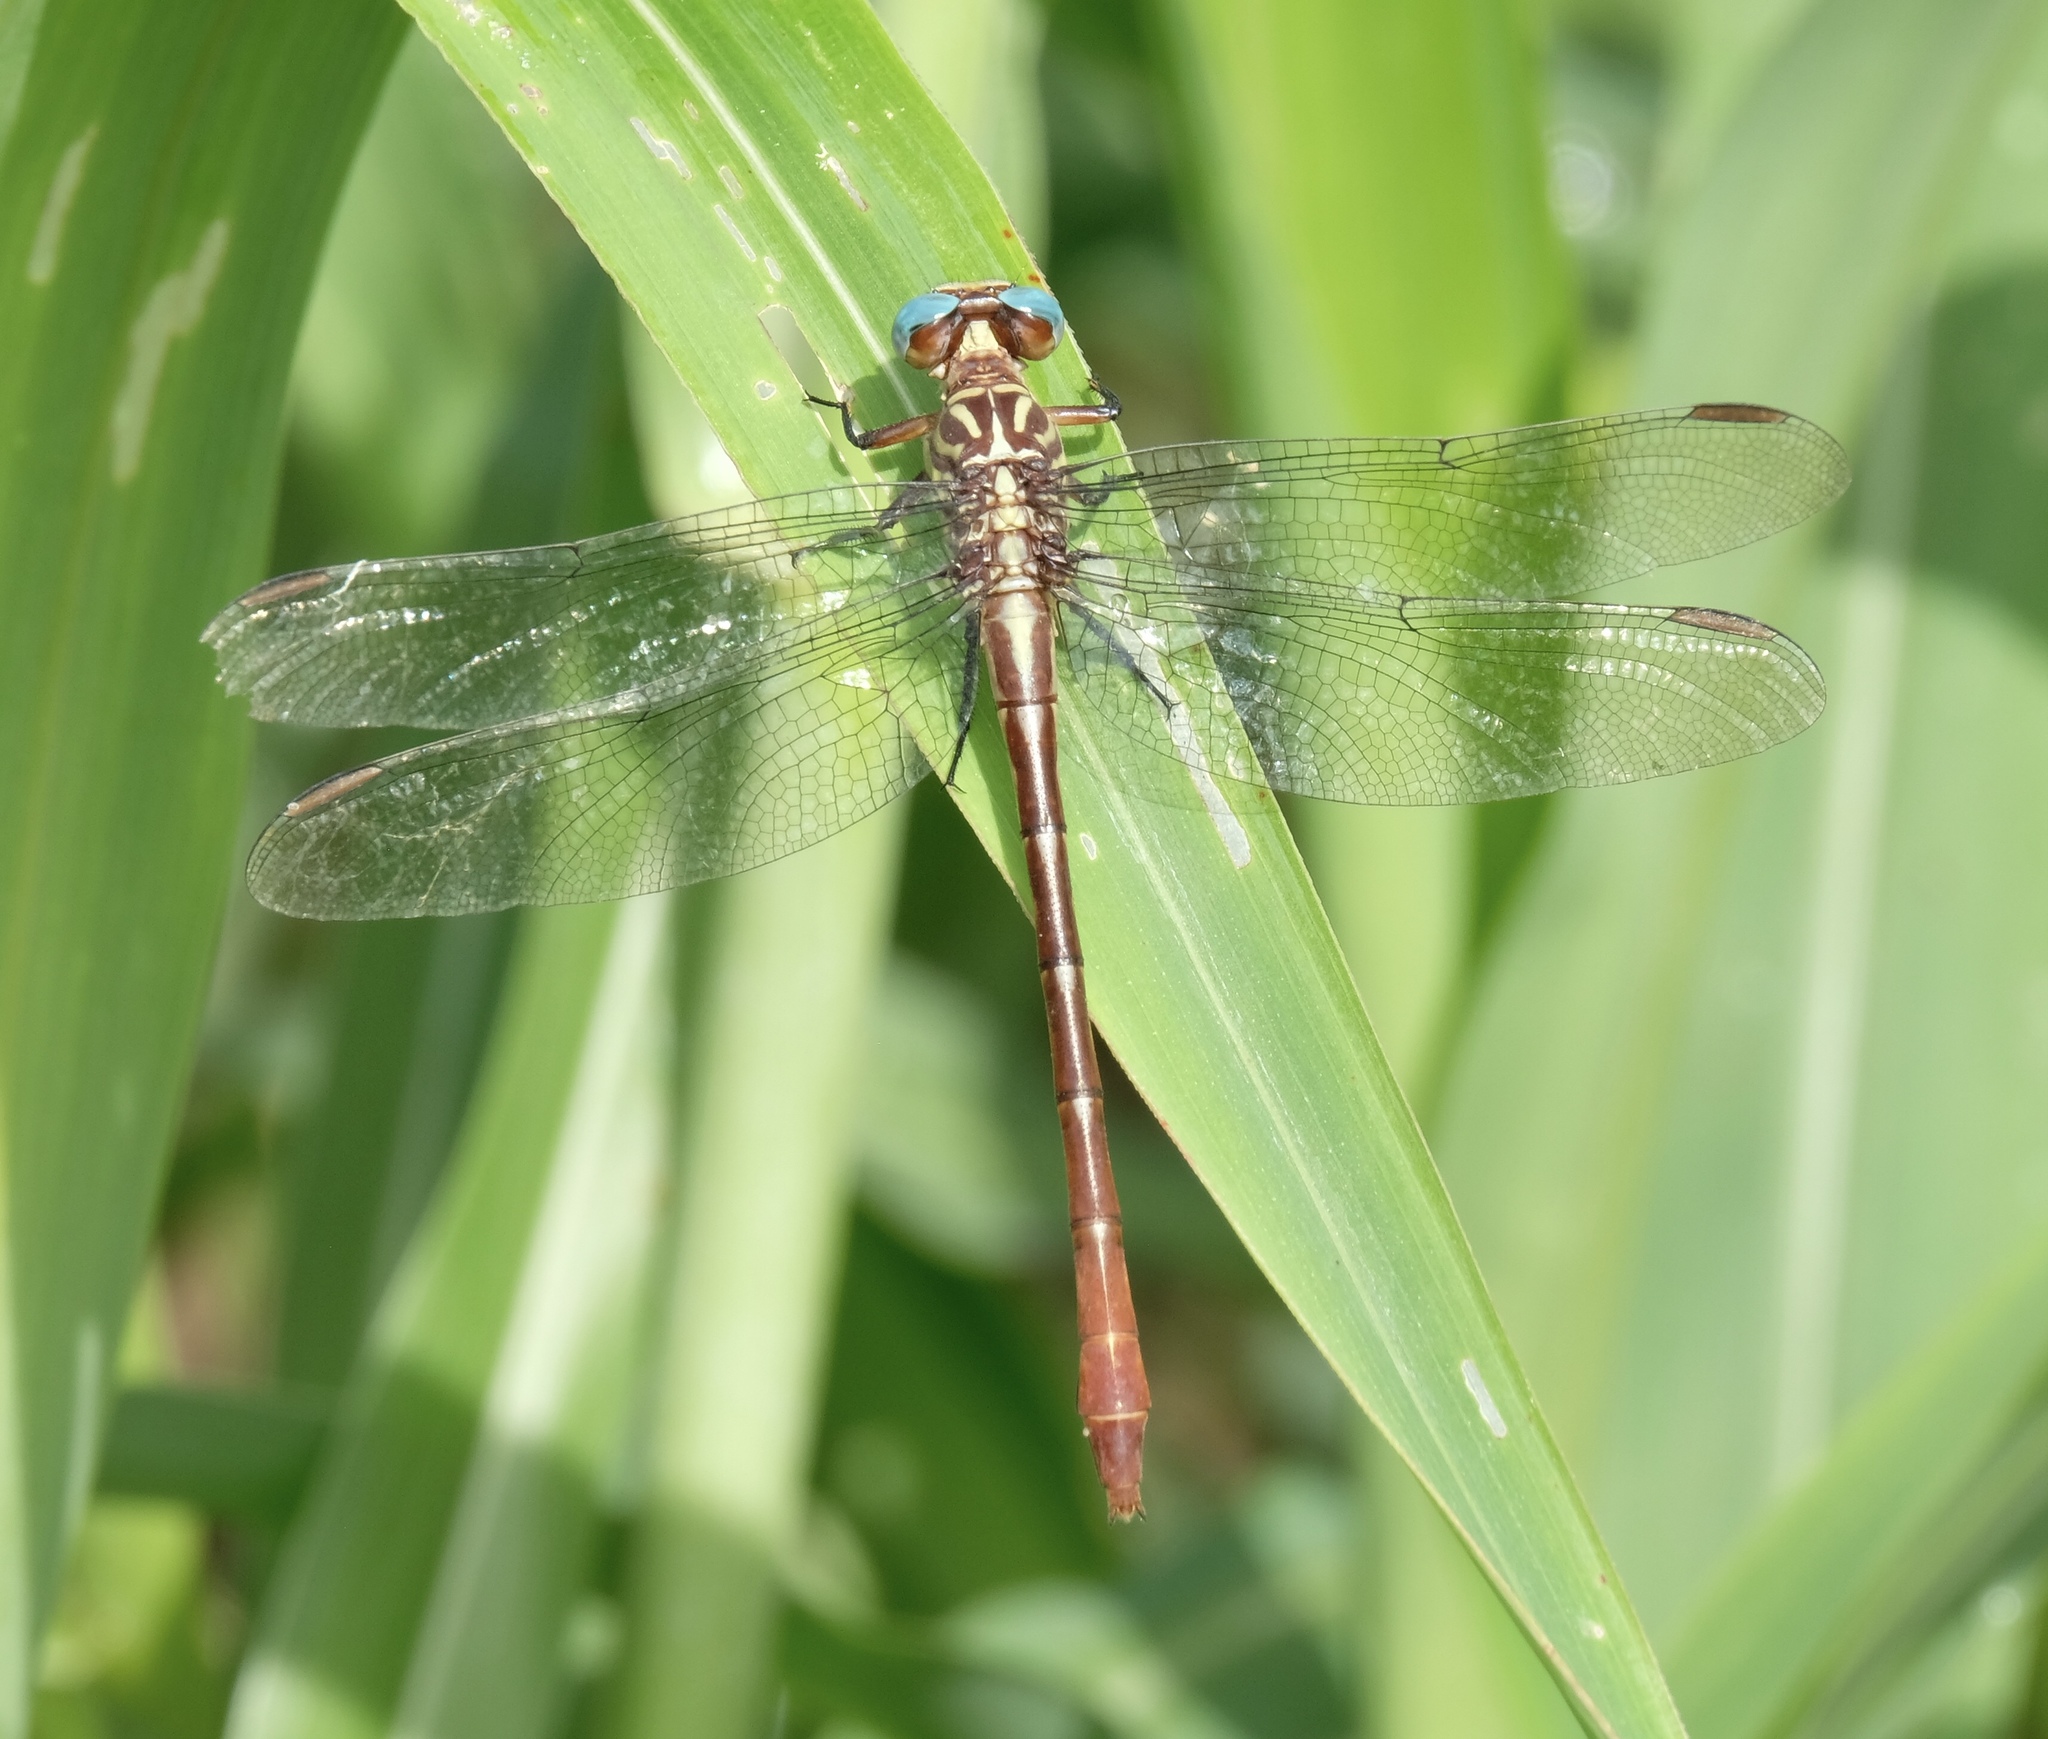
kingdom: Animalia
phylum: Arthropoda
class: Insecta
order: Odonata
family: Gomphidae
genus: Stylurus
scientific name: Stylurus plagiatus
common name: Russet-tipped clubtail
